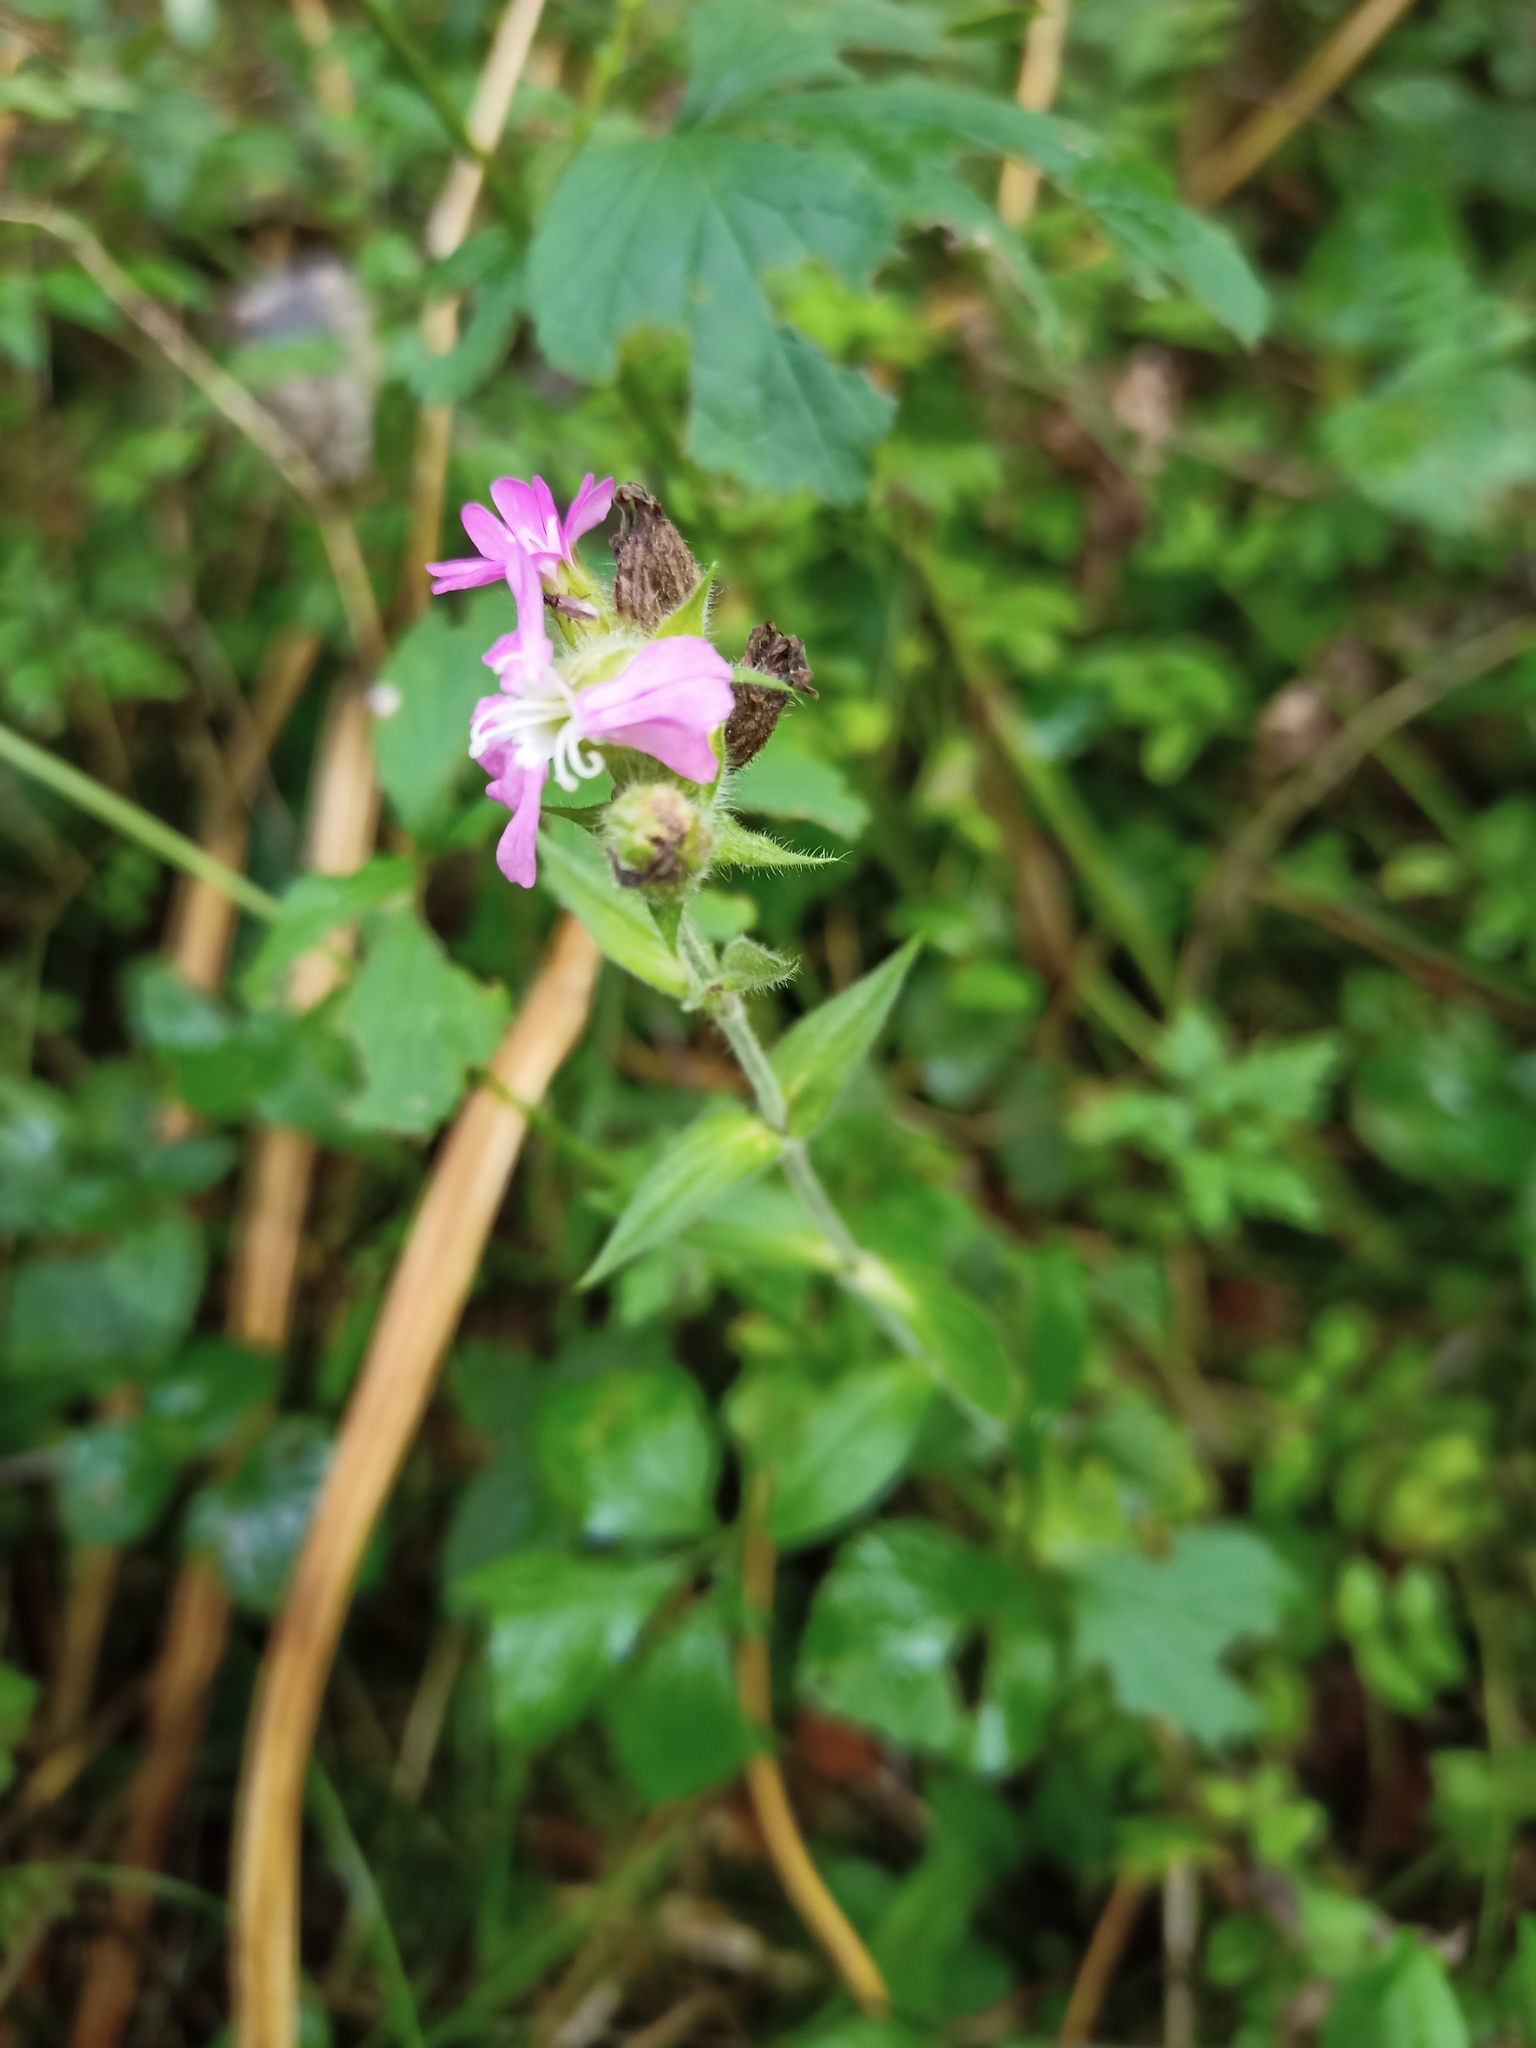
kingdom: Plantae
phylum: Tracheophyta
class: Magnoliopsida
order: Caryophyllales
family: Caryophyllaceae
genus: Silene
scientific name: Silene dioica
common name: Red campion
